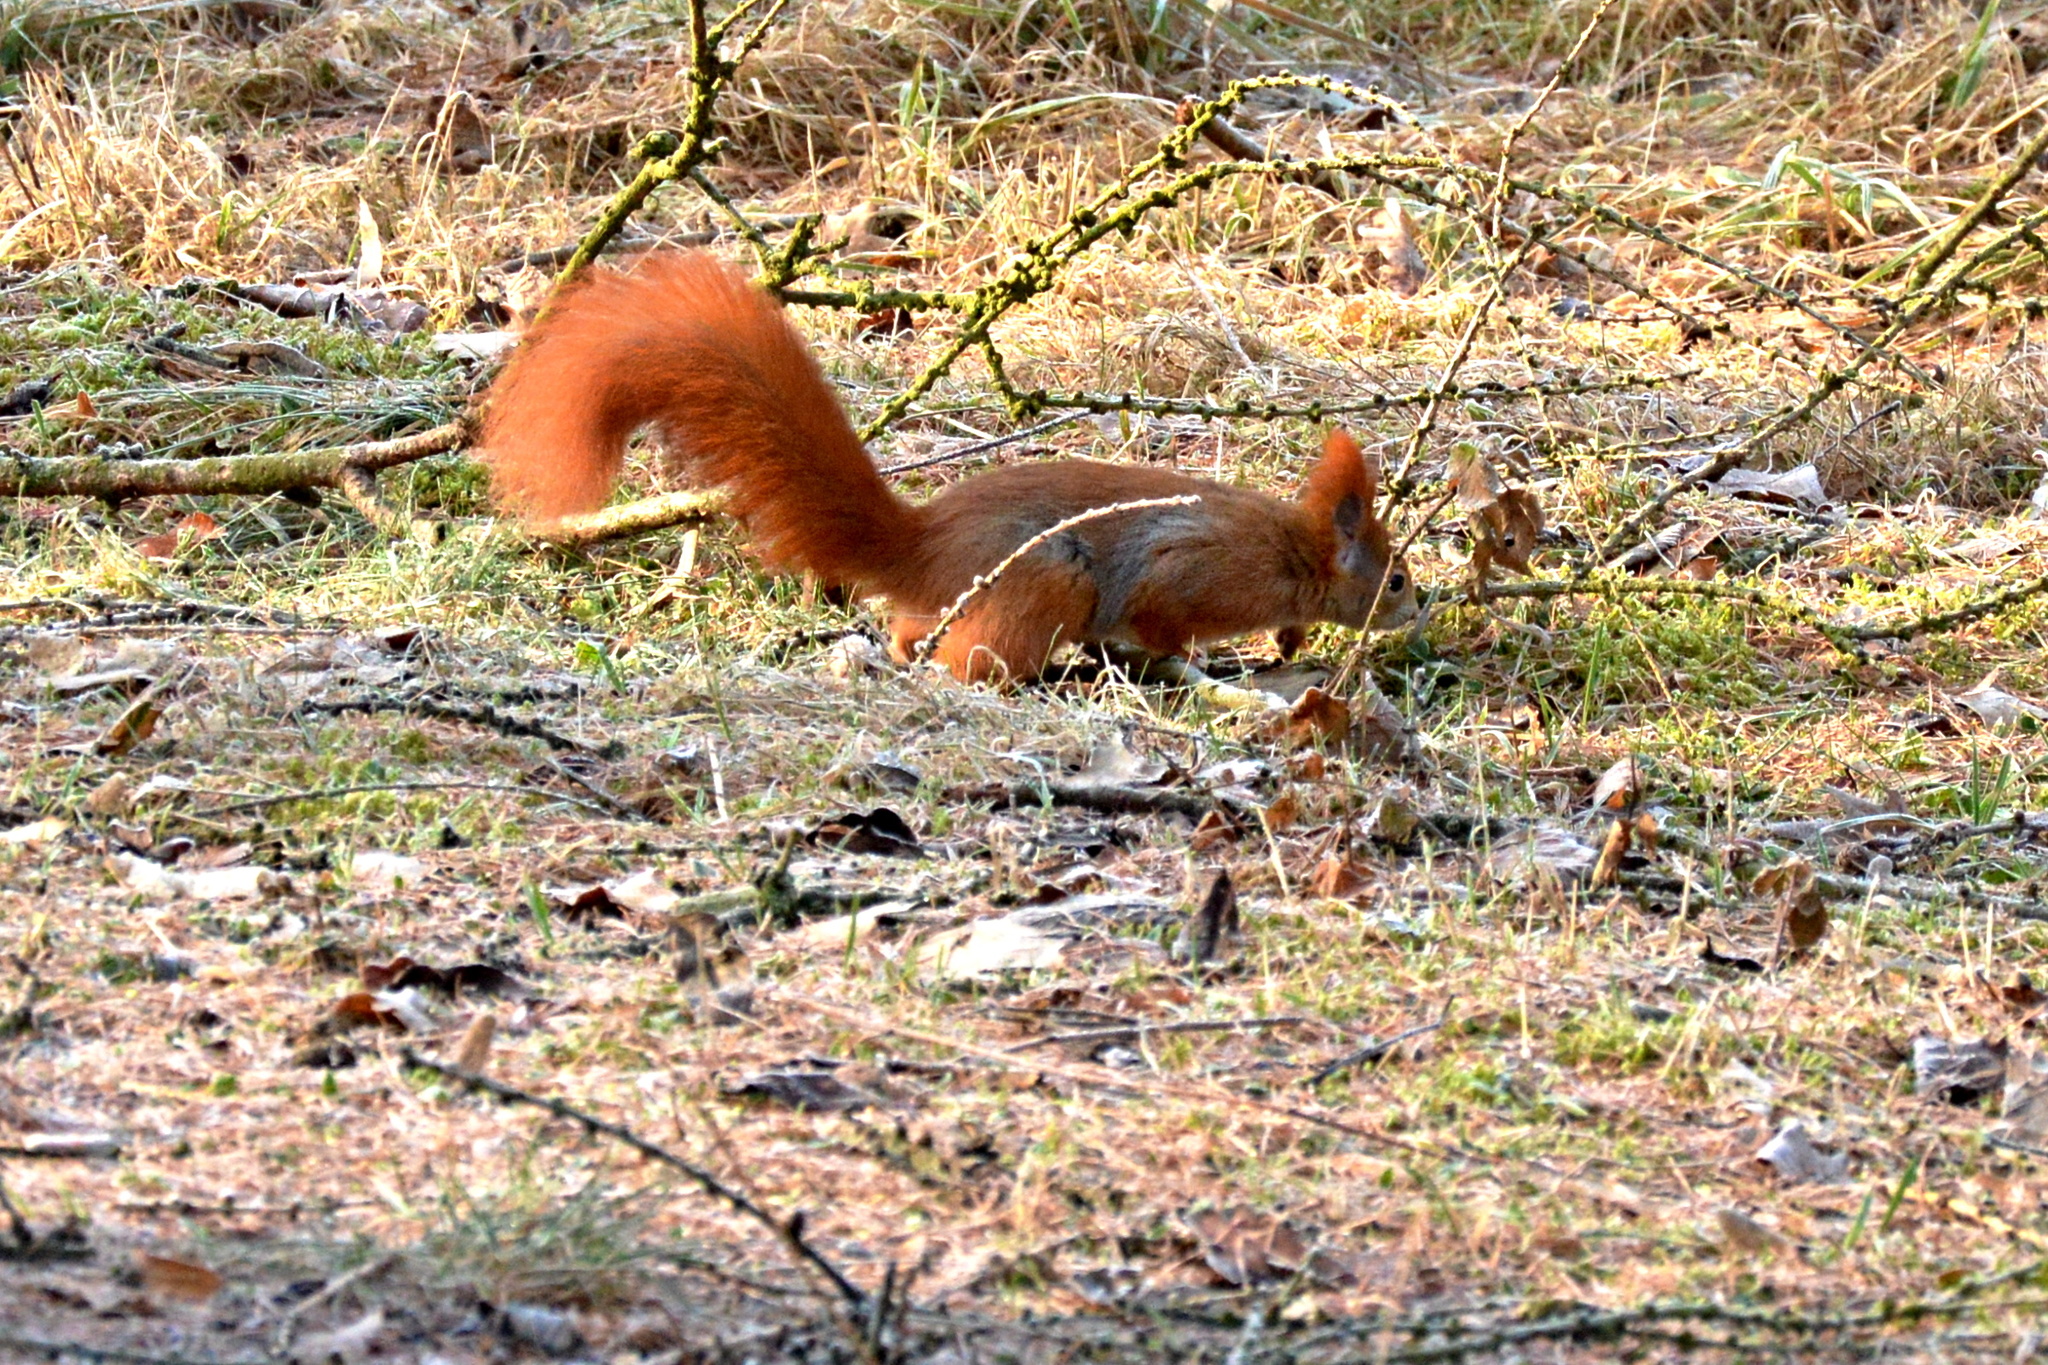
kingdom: Animalia
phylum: Chordata
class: Mammalia
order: Rodentia
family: Sciuridae
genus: Sciurus
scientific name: Sciurus vulgaris
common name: Eurasian red squirrel
